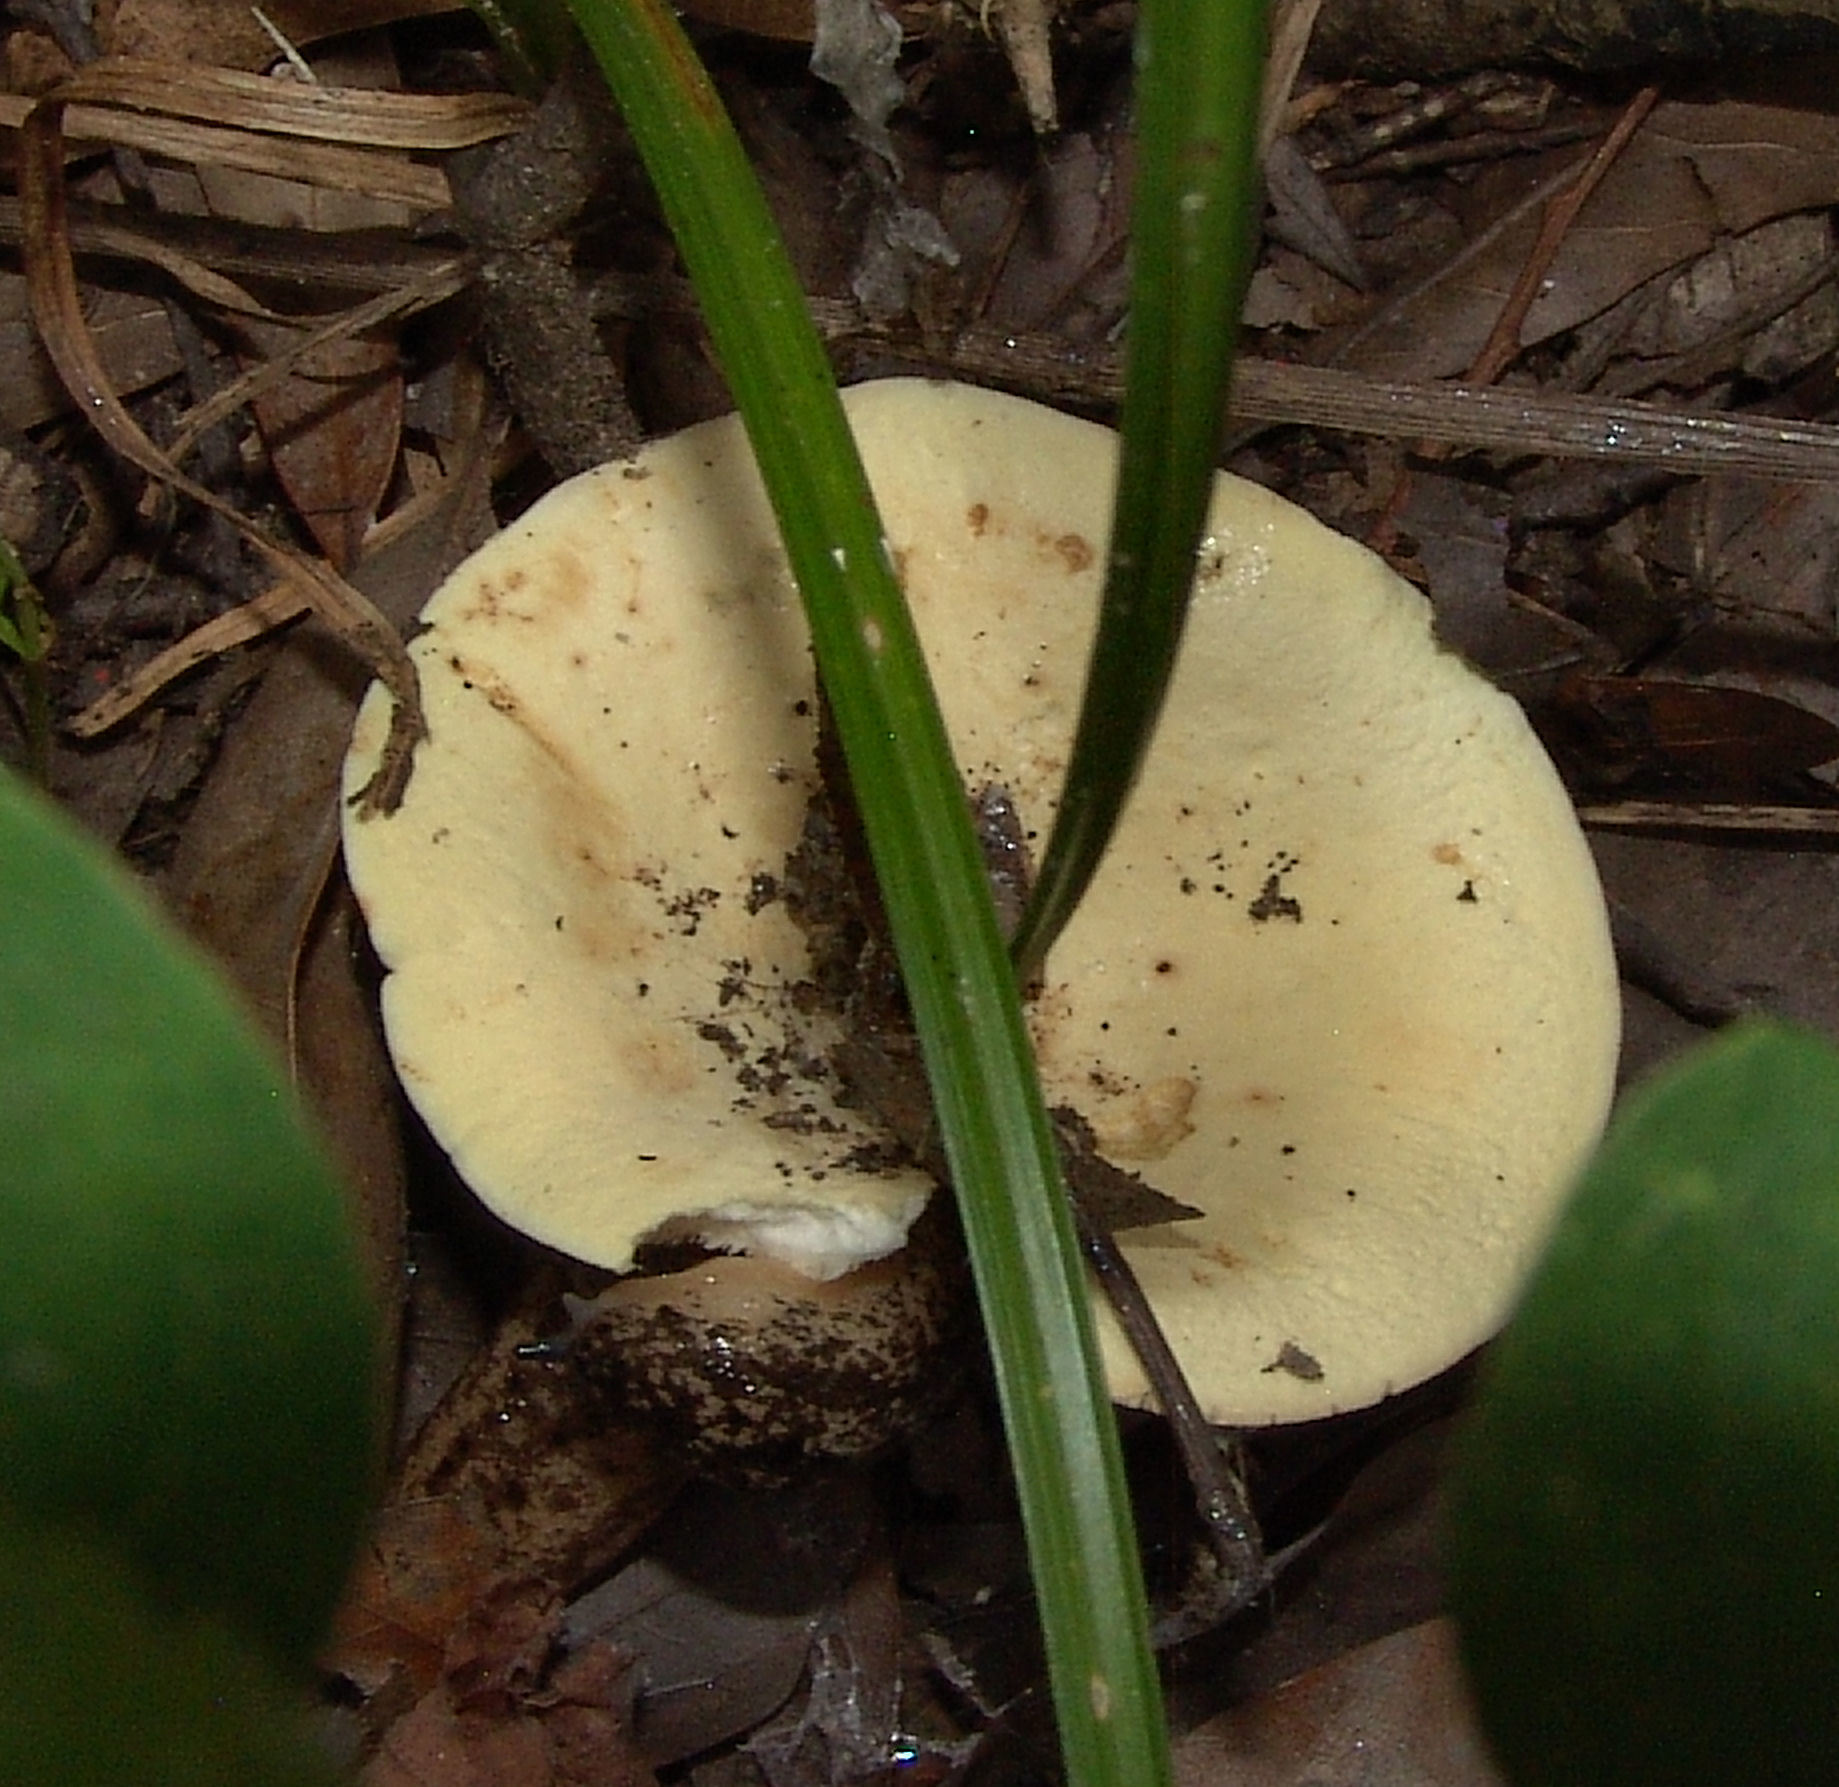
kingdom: Fungi
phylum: Basidiomycota
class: Agaricomycetes
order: Russulales
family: Russulaceae
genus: Lactifluus
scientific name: Lactifluus piperatus
